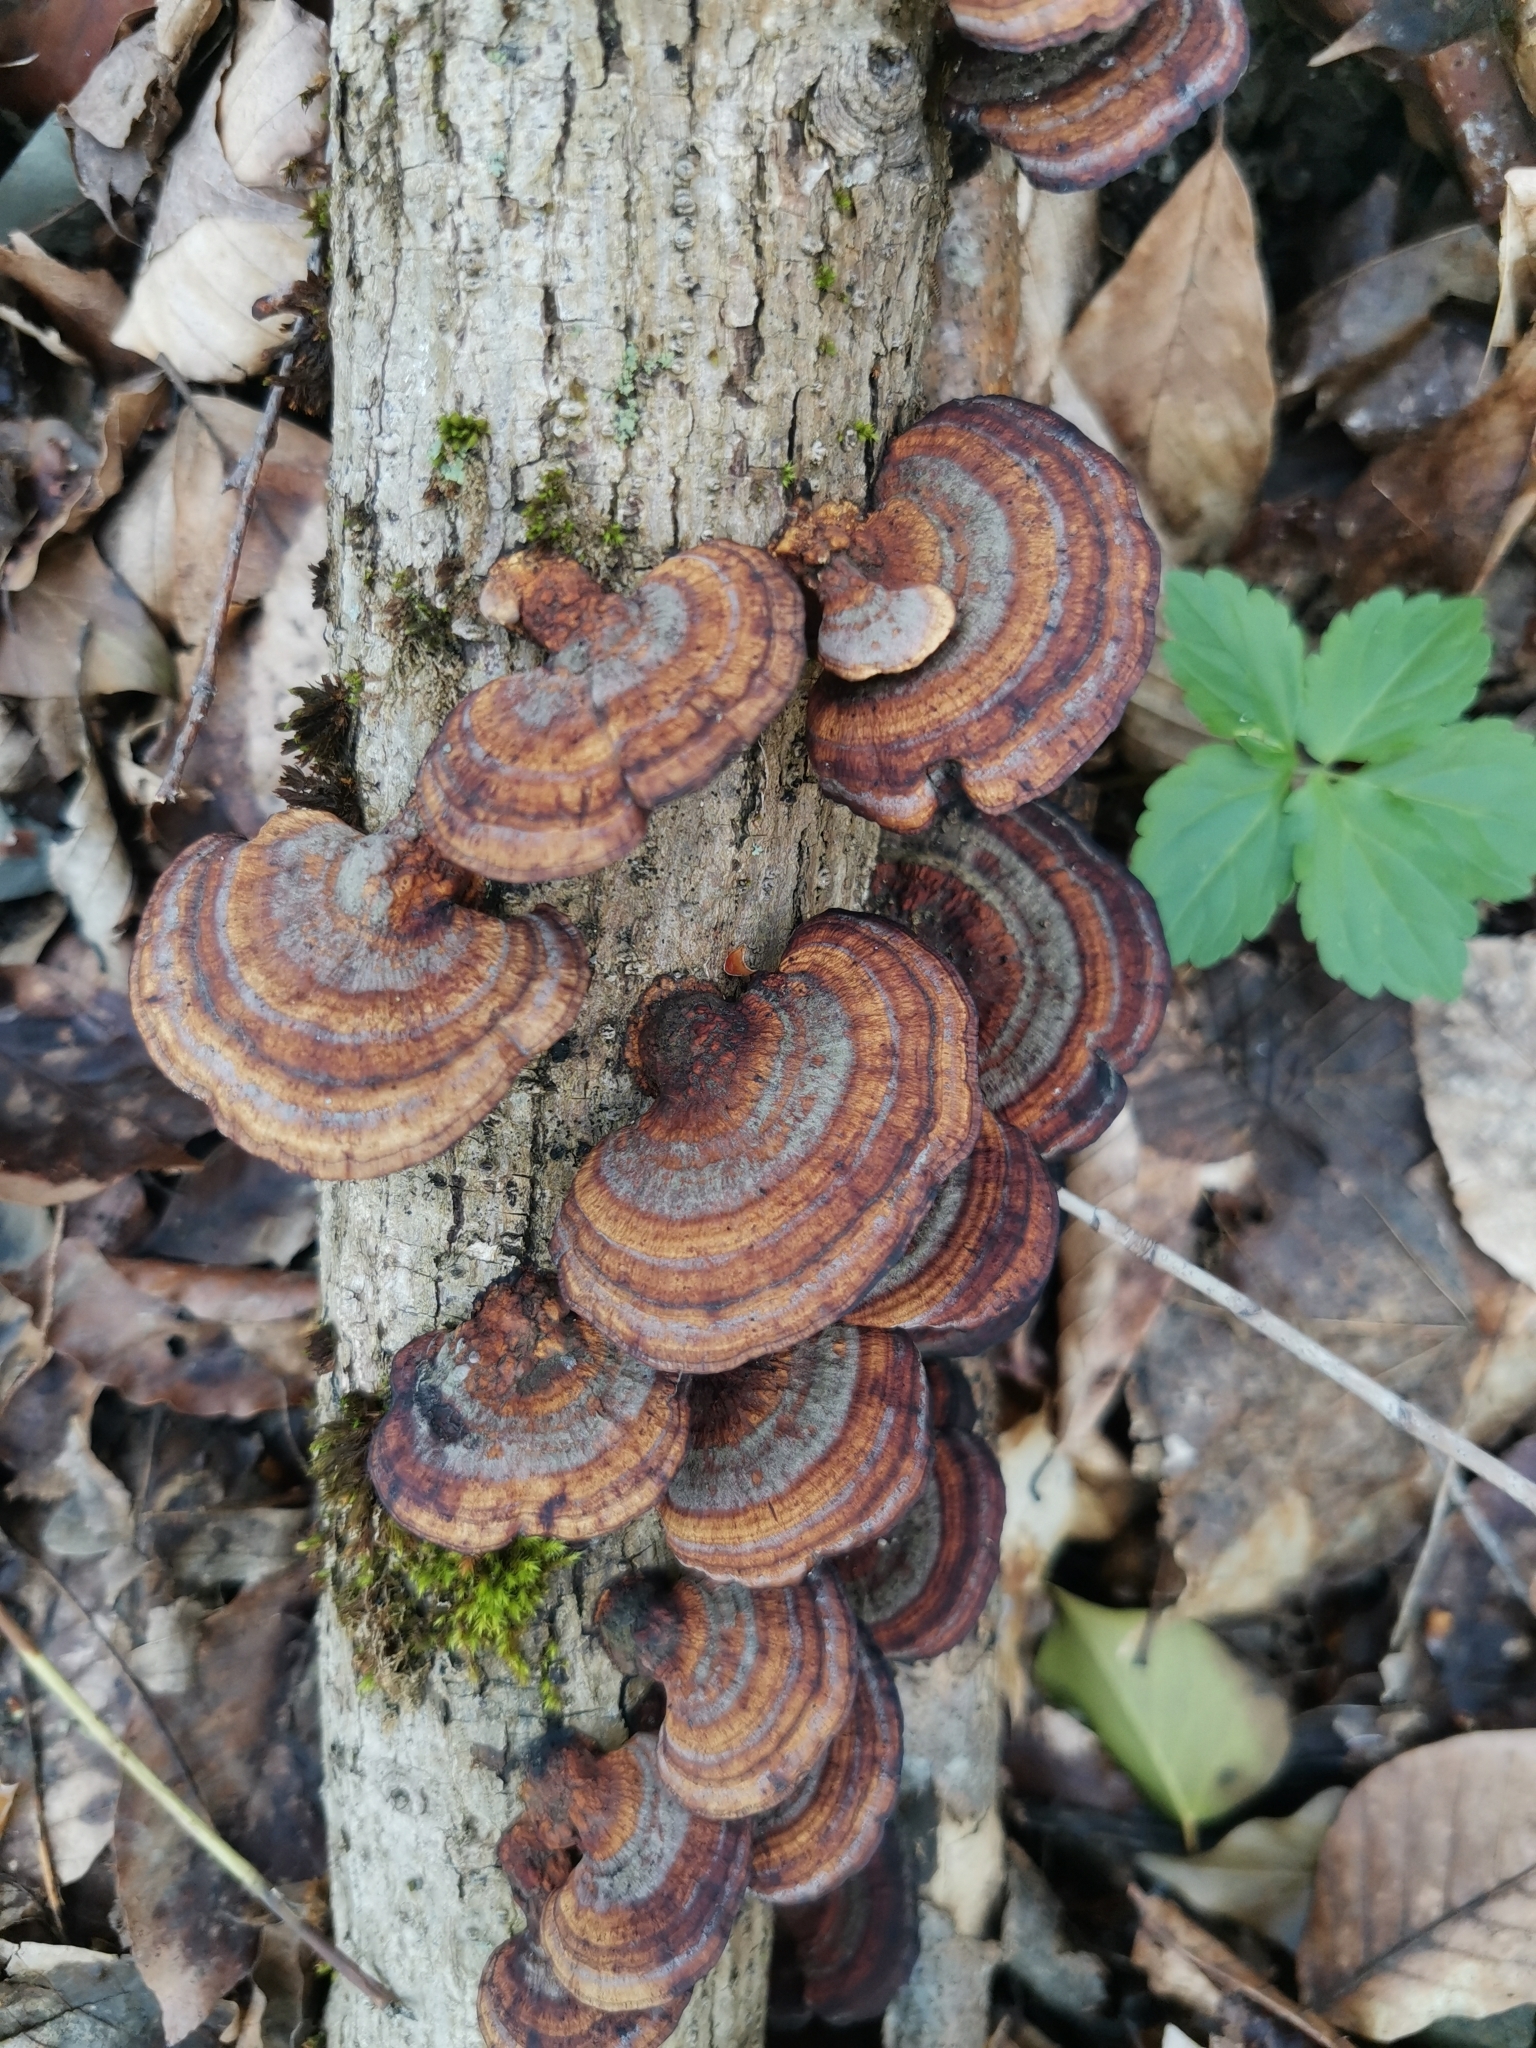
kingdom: Fungi
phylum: Basidiomycota
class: Agaricomycetes
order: Polyporales
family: Polyporaceae
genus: Daedaleopsis
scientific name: Daedaleopsis tricolor
